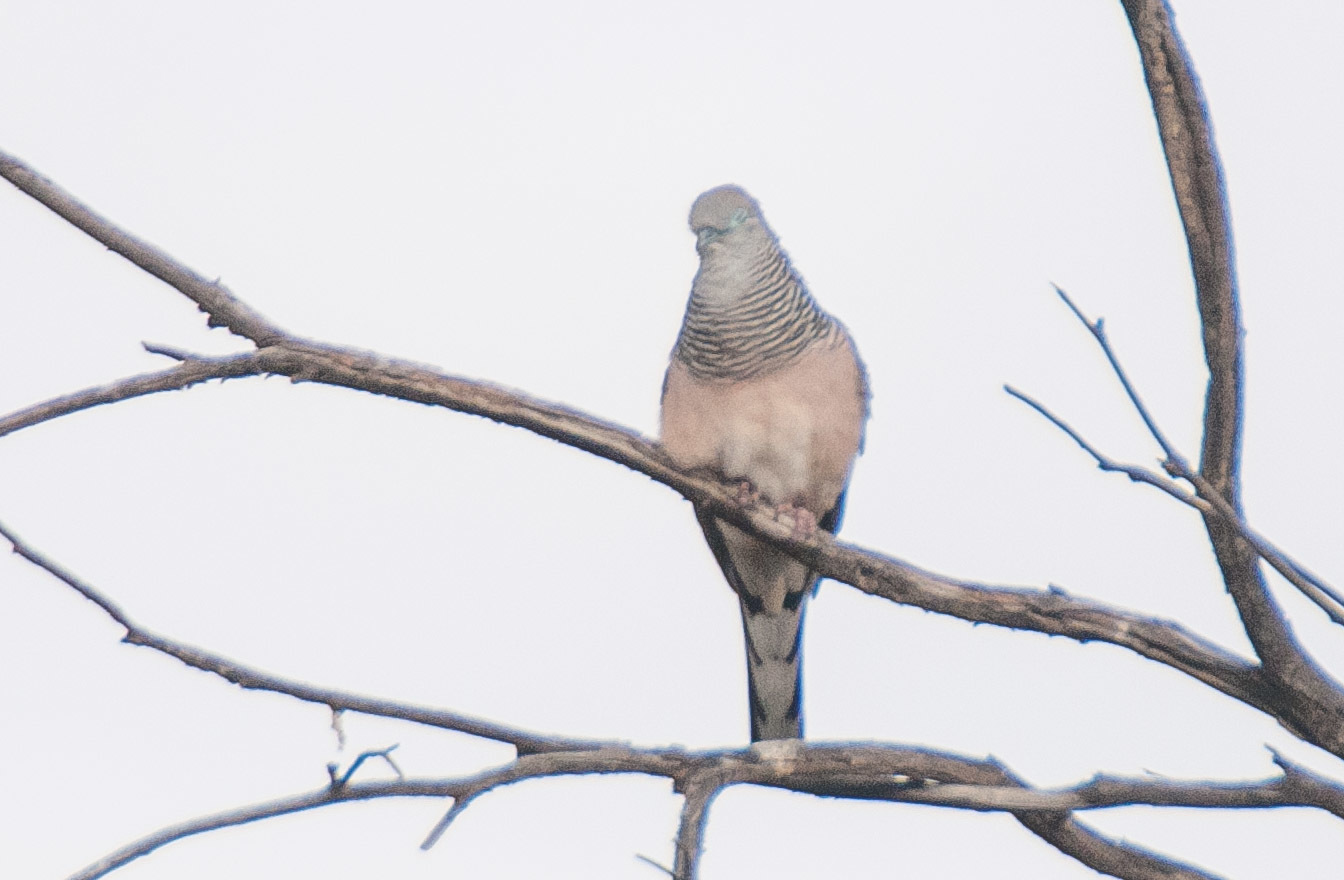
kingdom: Animalia
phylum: Chordata
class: Aves
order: Columbiformes
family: Columbidae
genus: Geopelia
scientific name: Geopelia placida
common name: Peaceful dove
